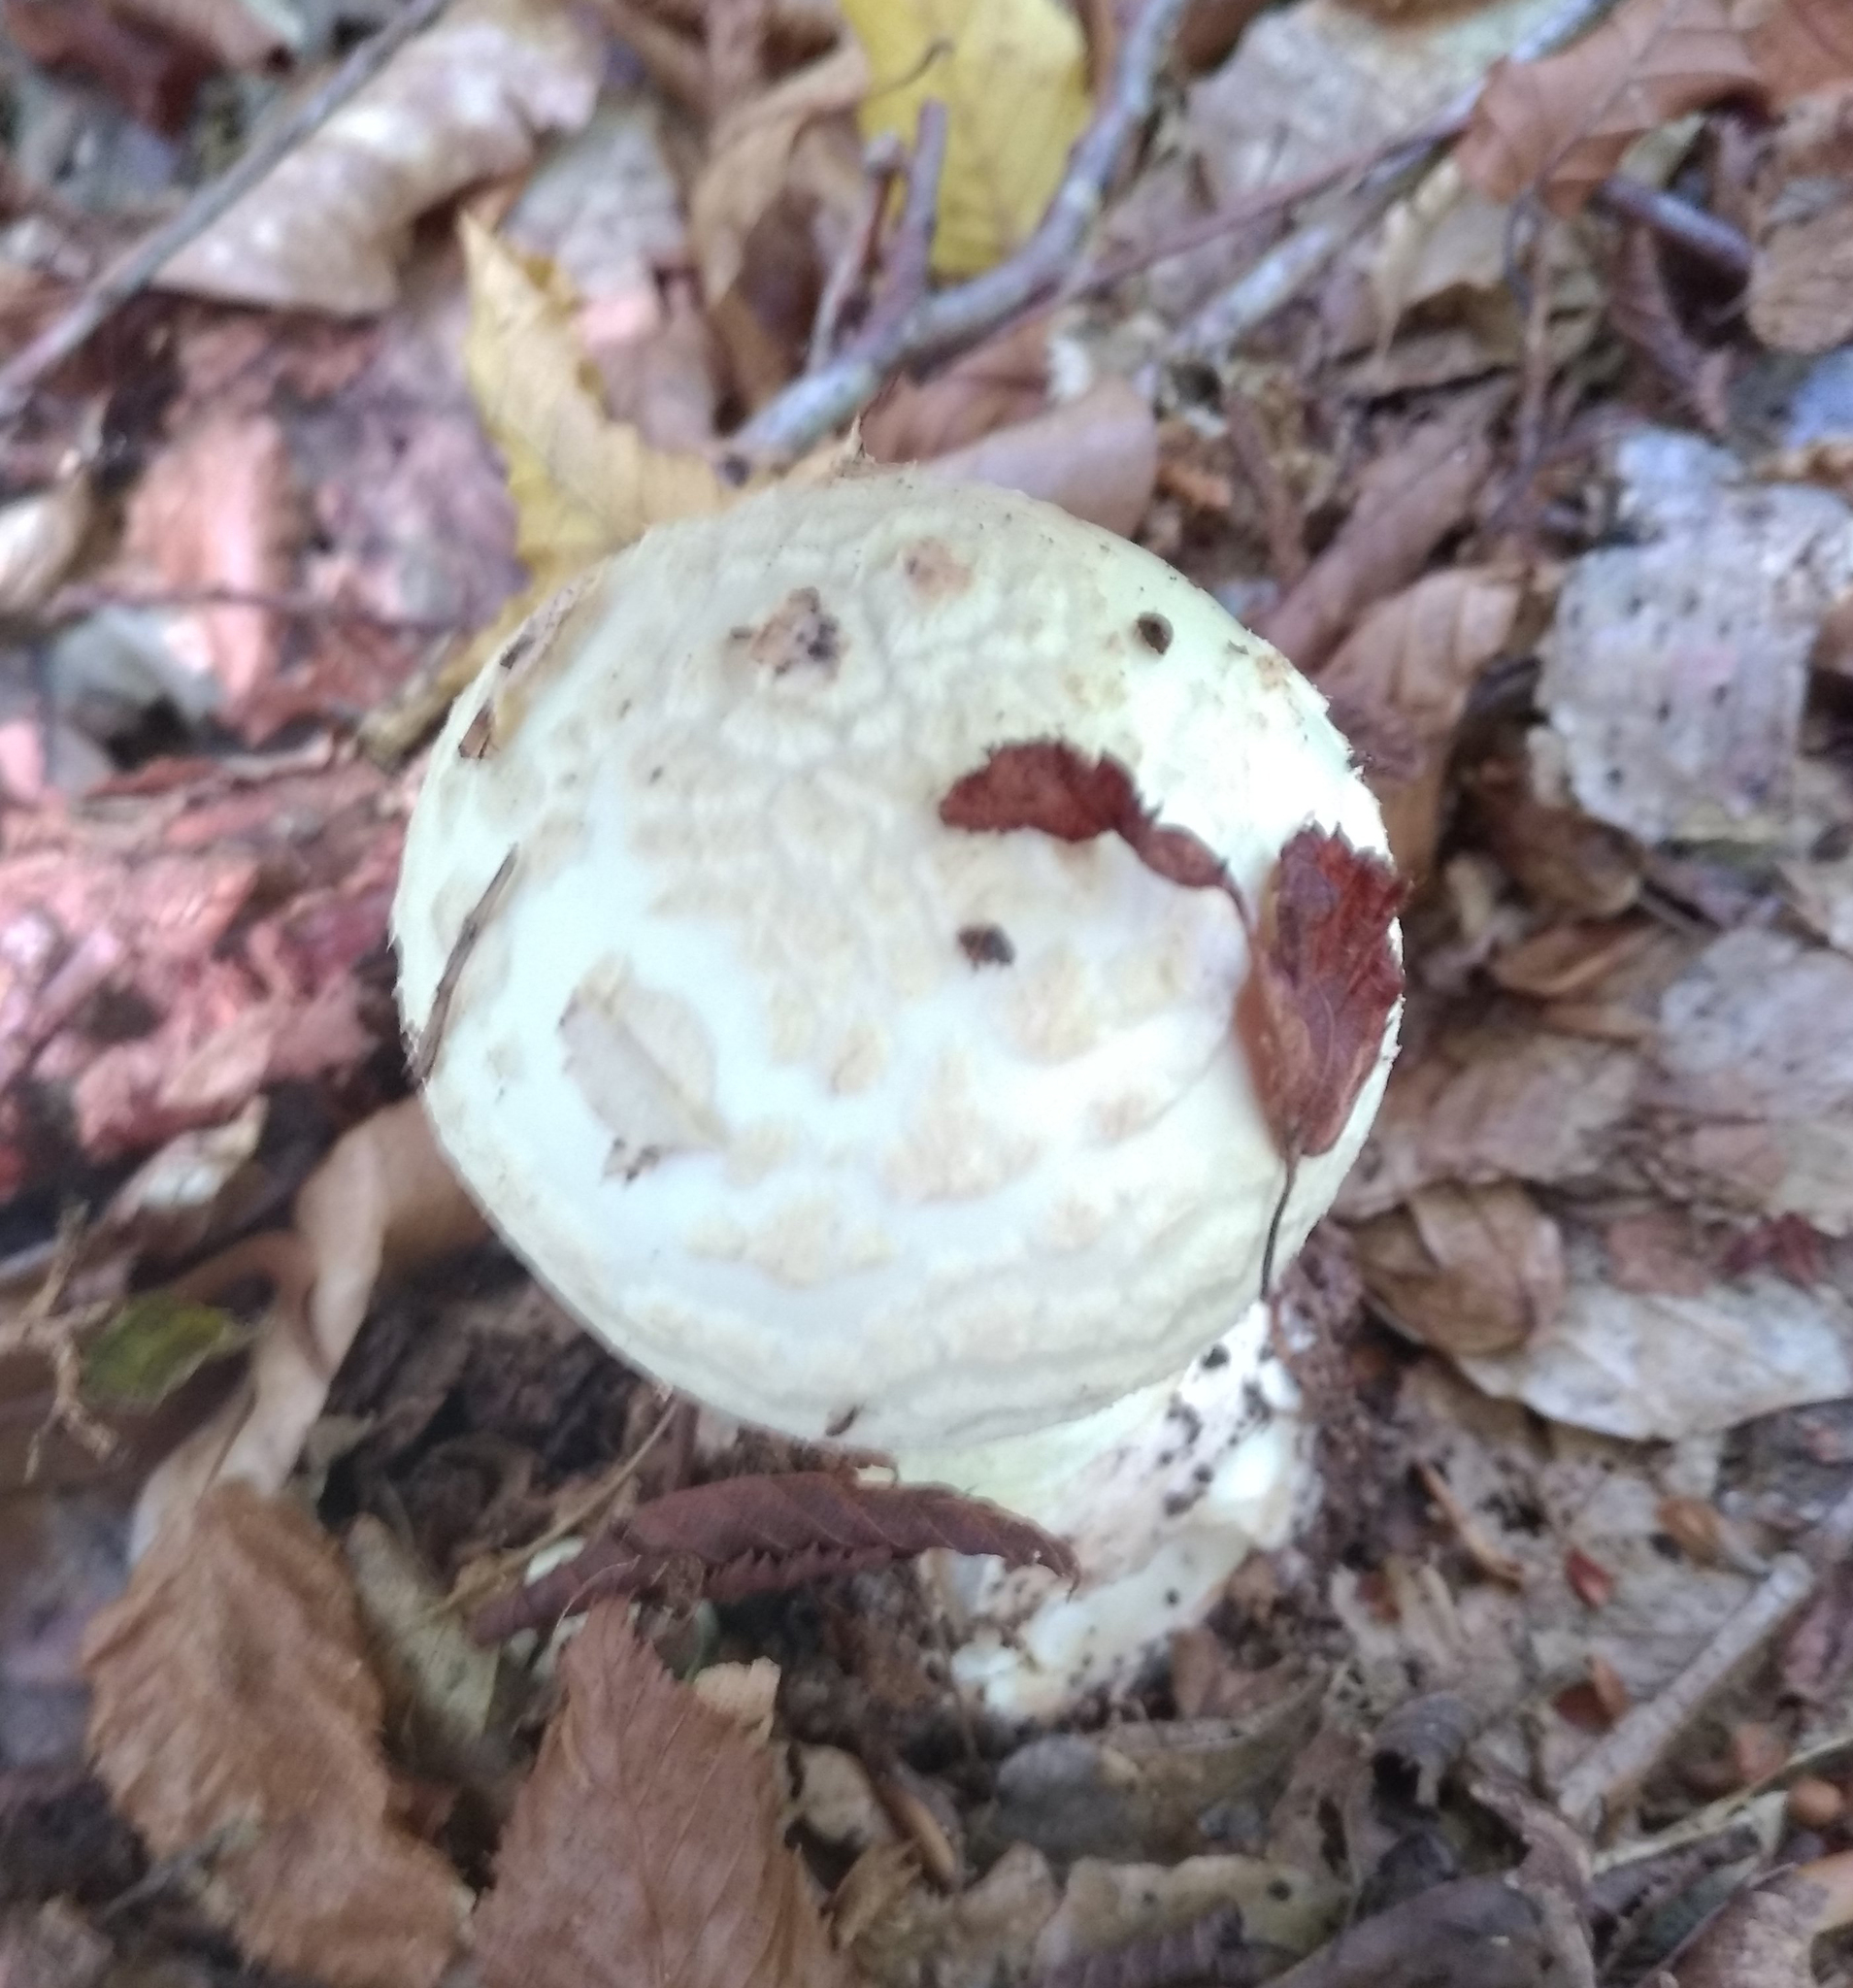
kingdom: Fungi
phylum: Basidiomycota
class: Agaricomycetes
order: Agaricales
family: Amanitaceae
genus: Amanita
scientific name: Amanita citrina
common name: False death-cap
